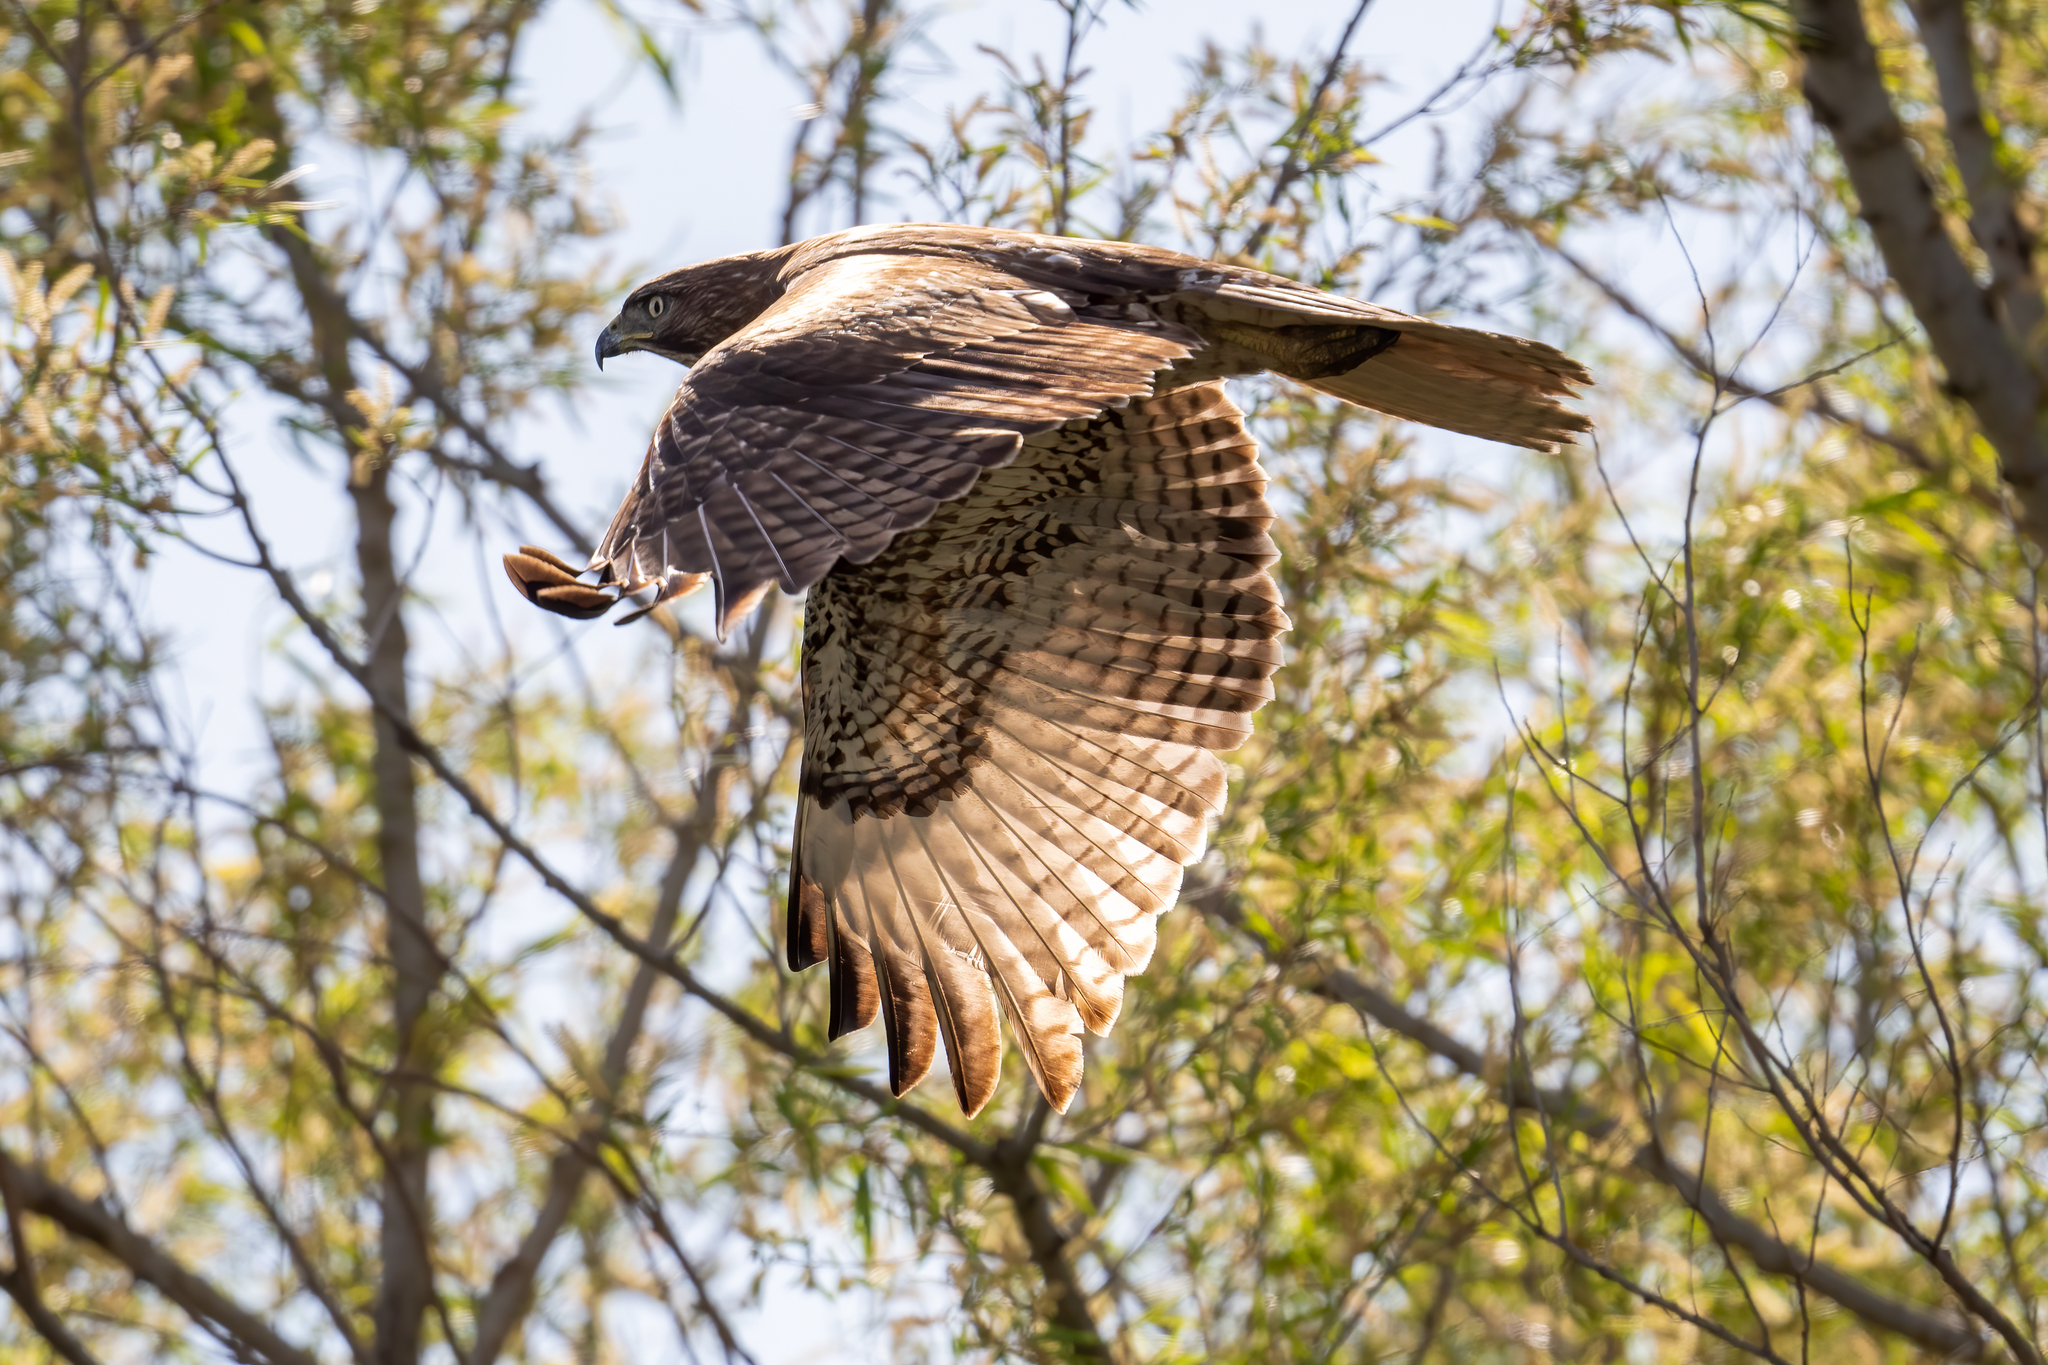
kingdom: Animalia
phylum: Chordata
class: Aves
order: Accipitriformes
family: Accipitridae
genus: Buteo
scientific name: Buteo jamaicensis
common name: Red-tailed hawk
